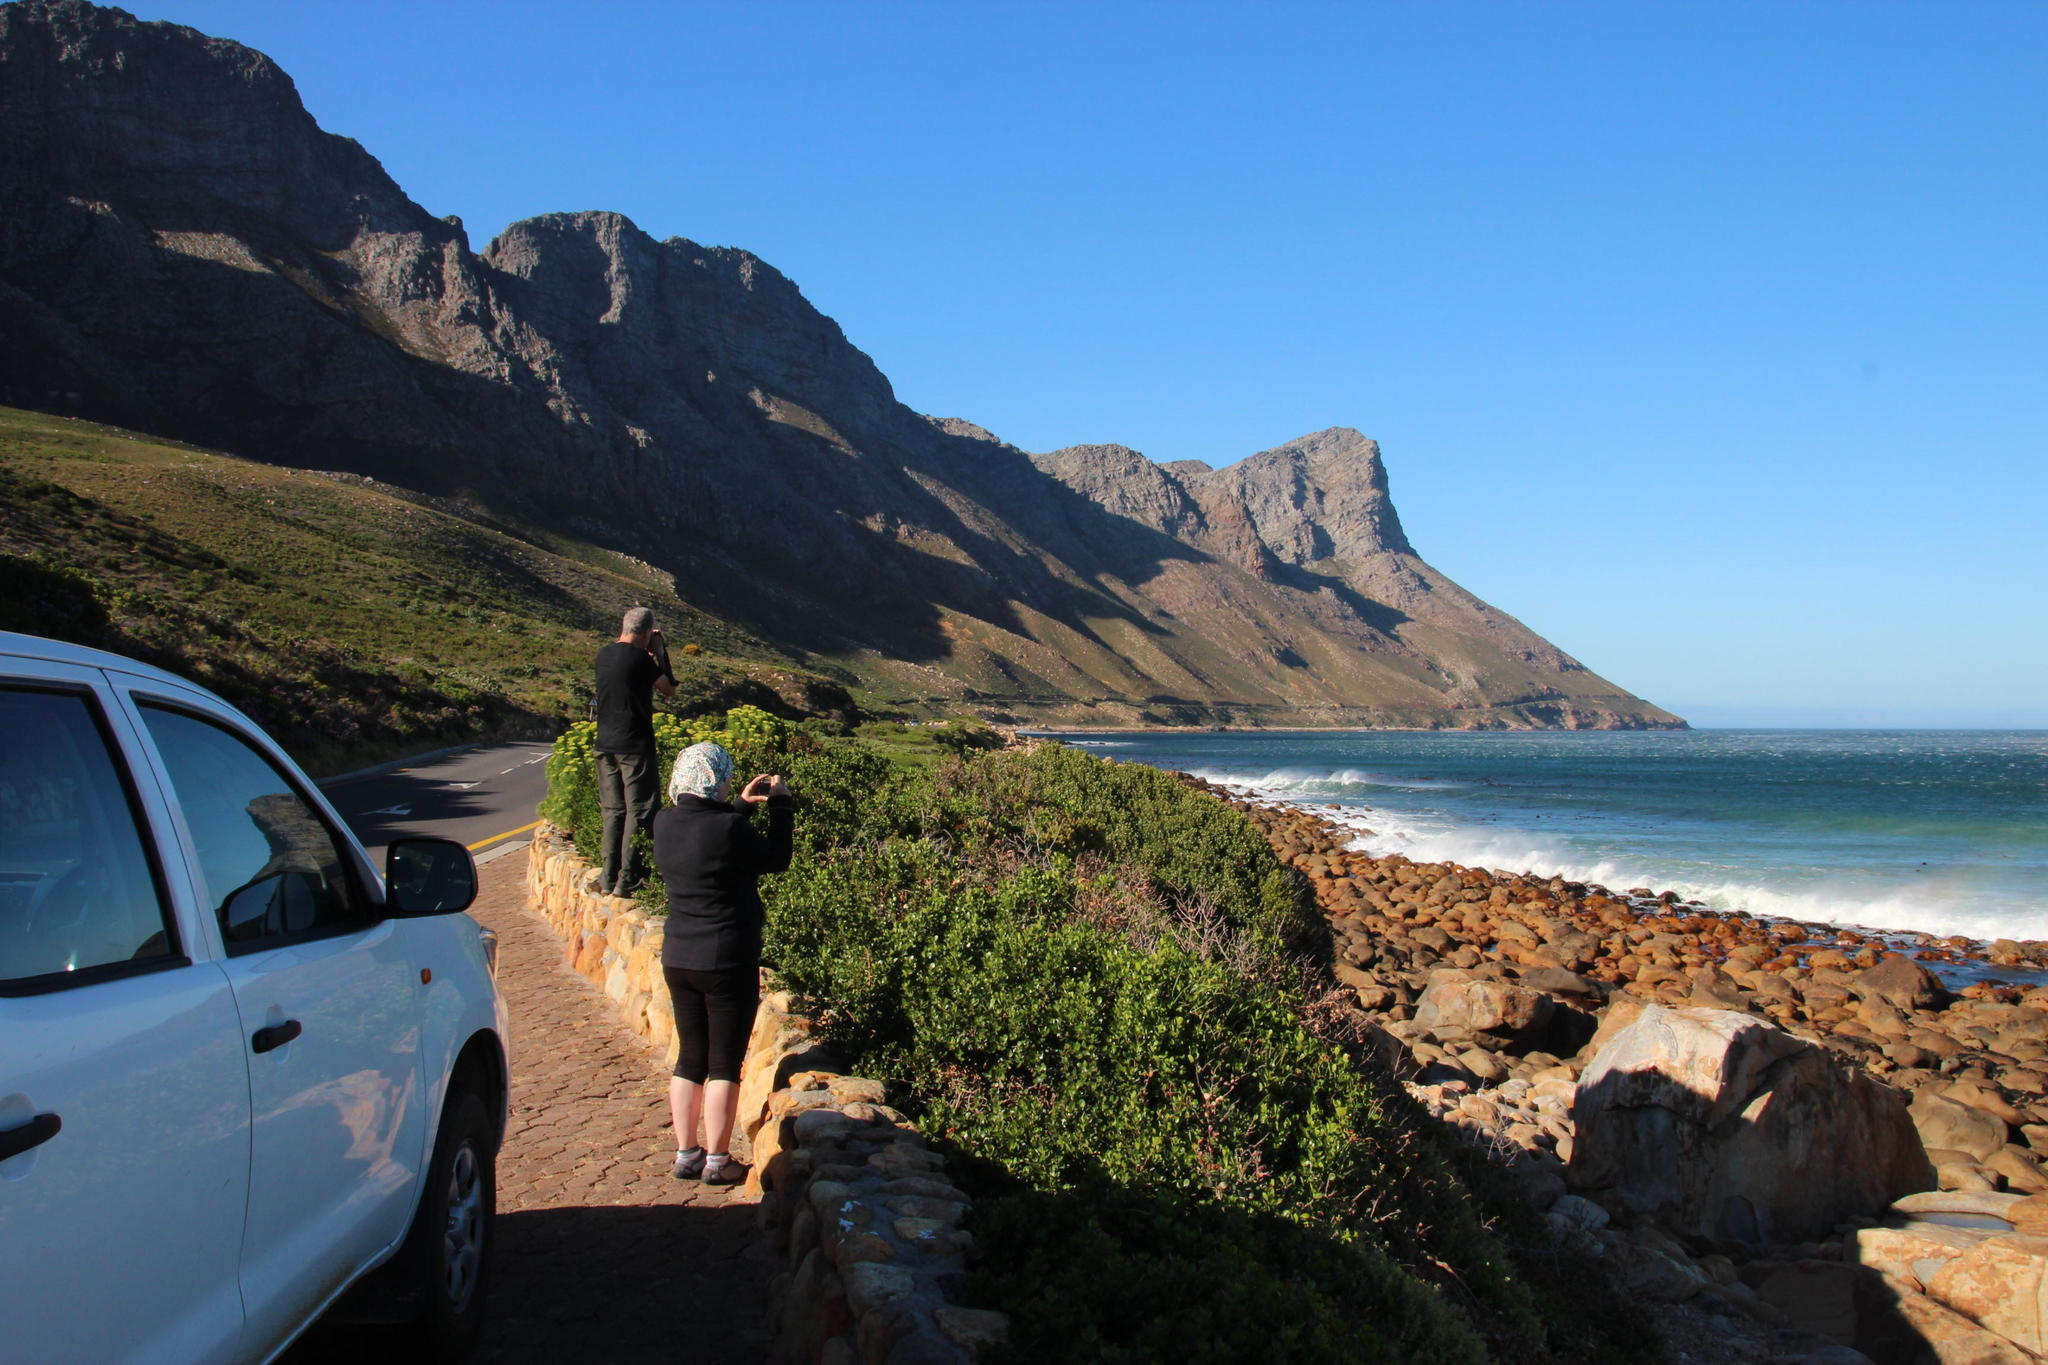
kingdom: Chromista
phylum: Ochrophyta
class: Phaeophyceae
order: Laminariales
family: Lessoniaceae
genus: Ecklonia
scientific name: Ecklonia
